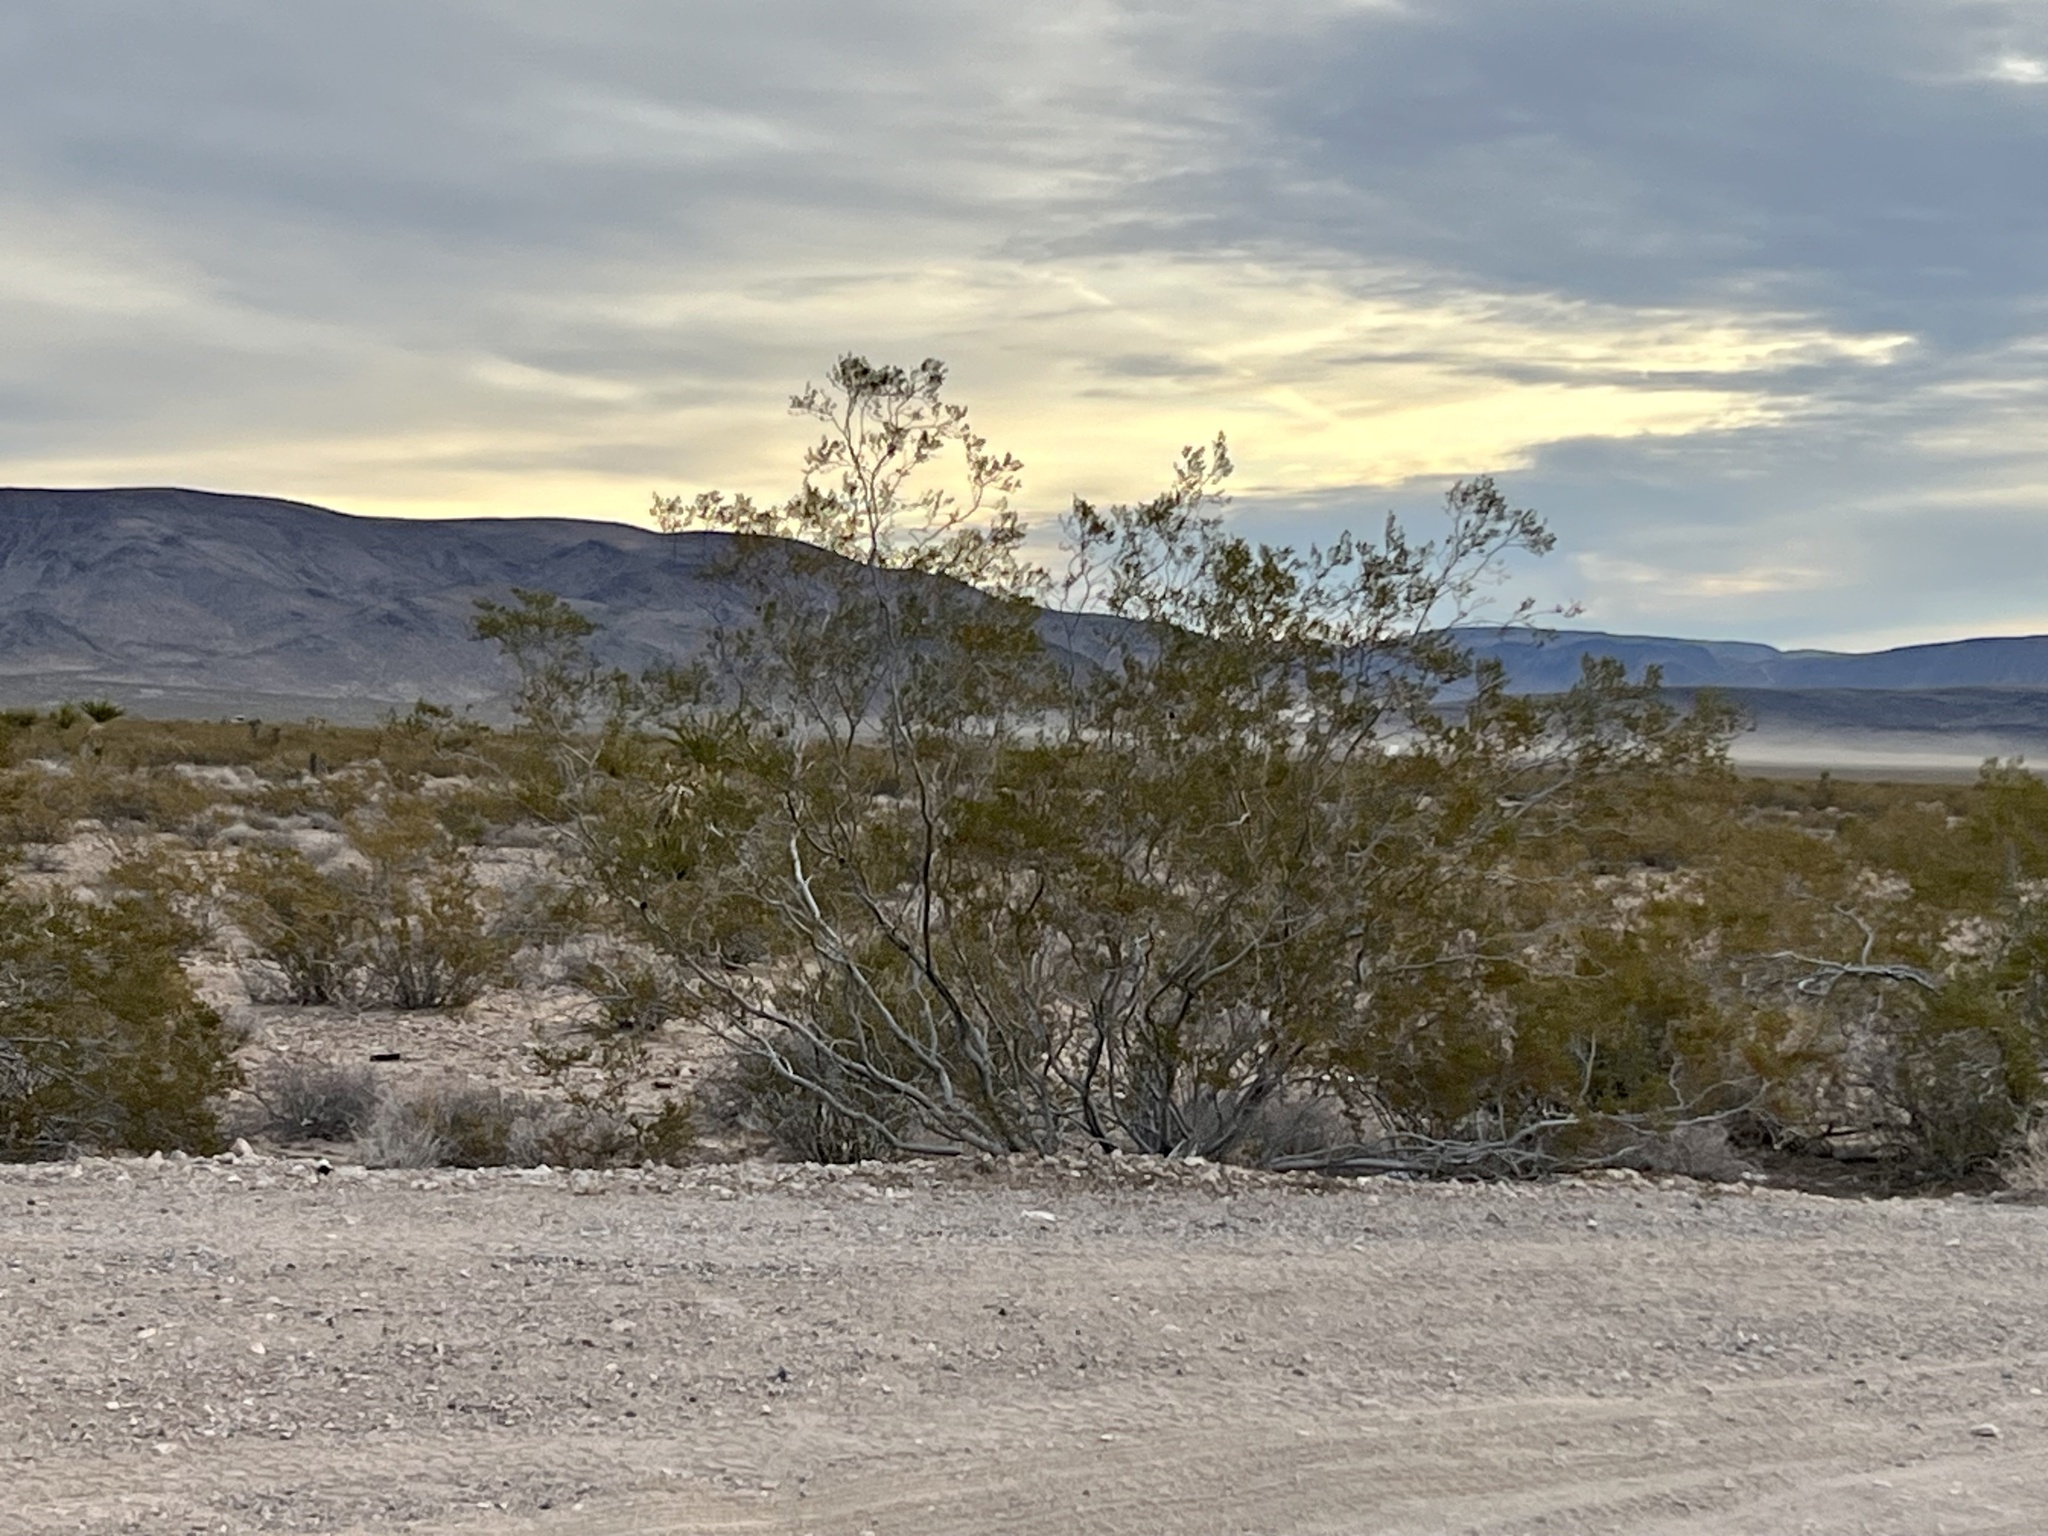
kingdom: Plantae
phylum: Tracheophyta
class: Magnoliopsida
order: Zygophyllales
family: Zygophyllaceae
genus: Larrea
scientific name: Larrea tridentata
